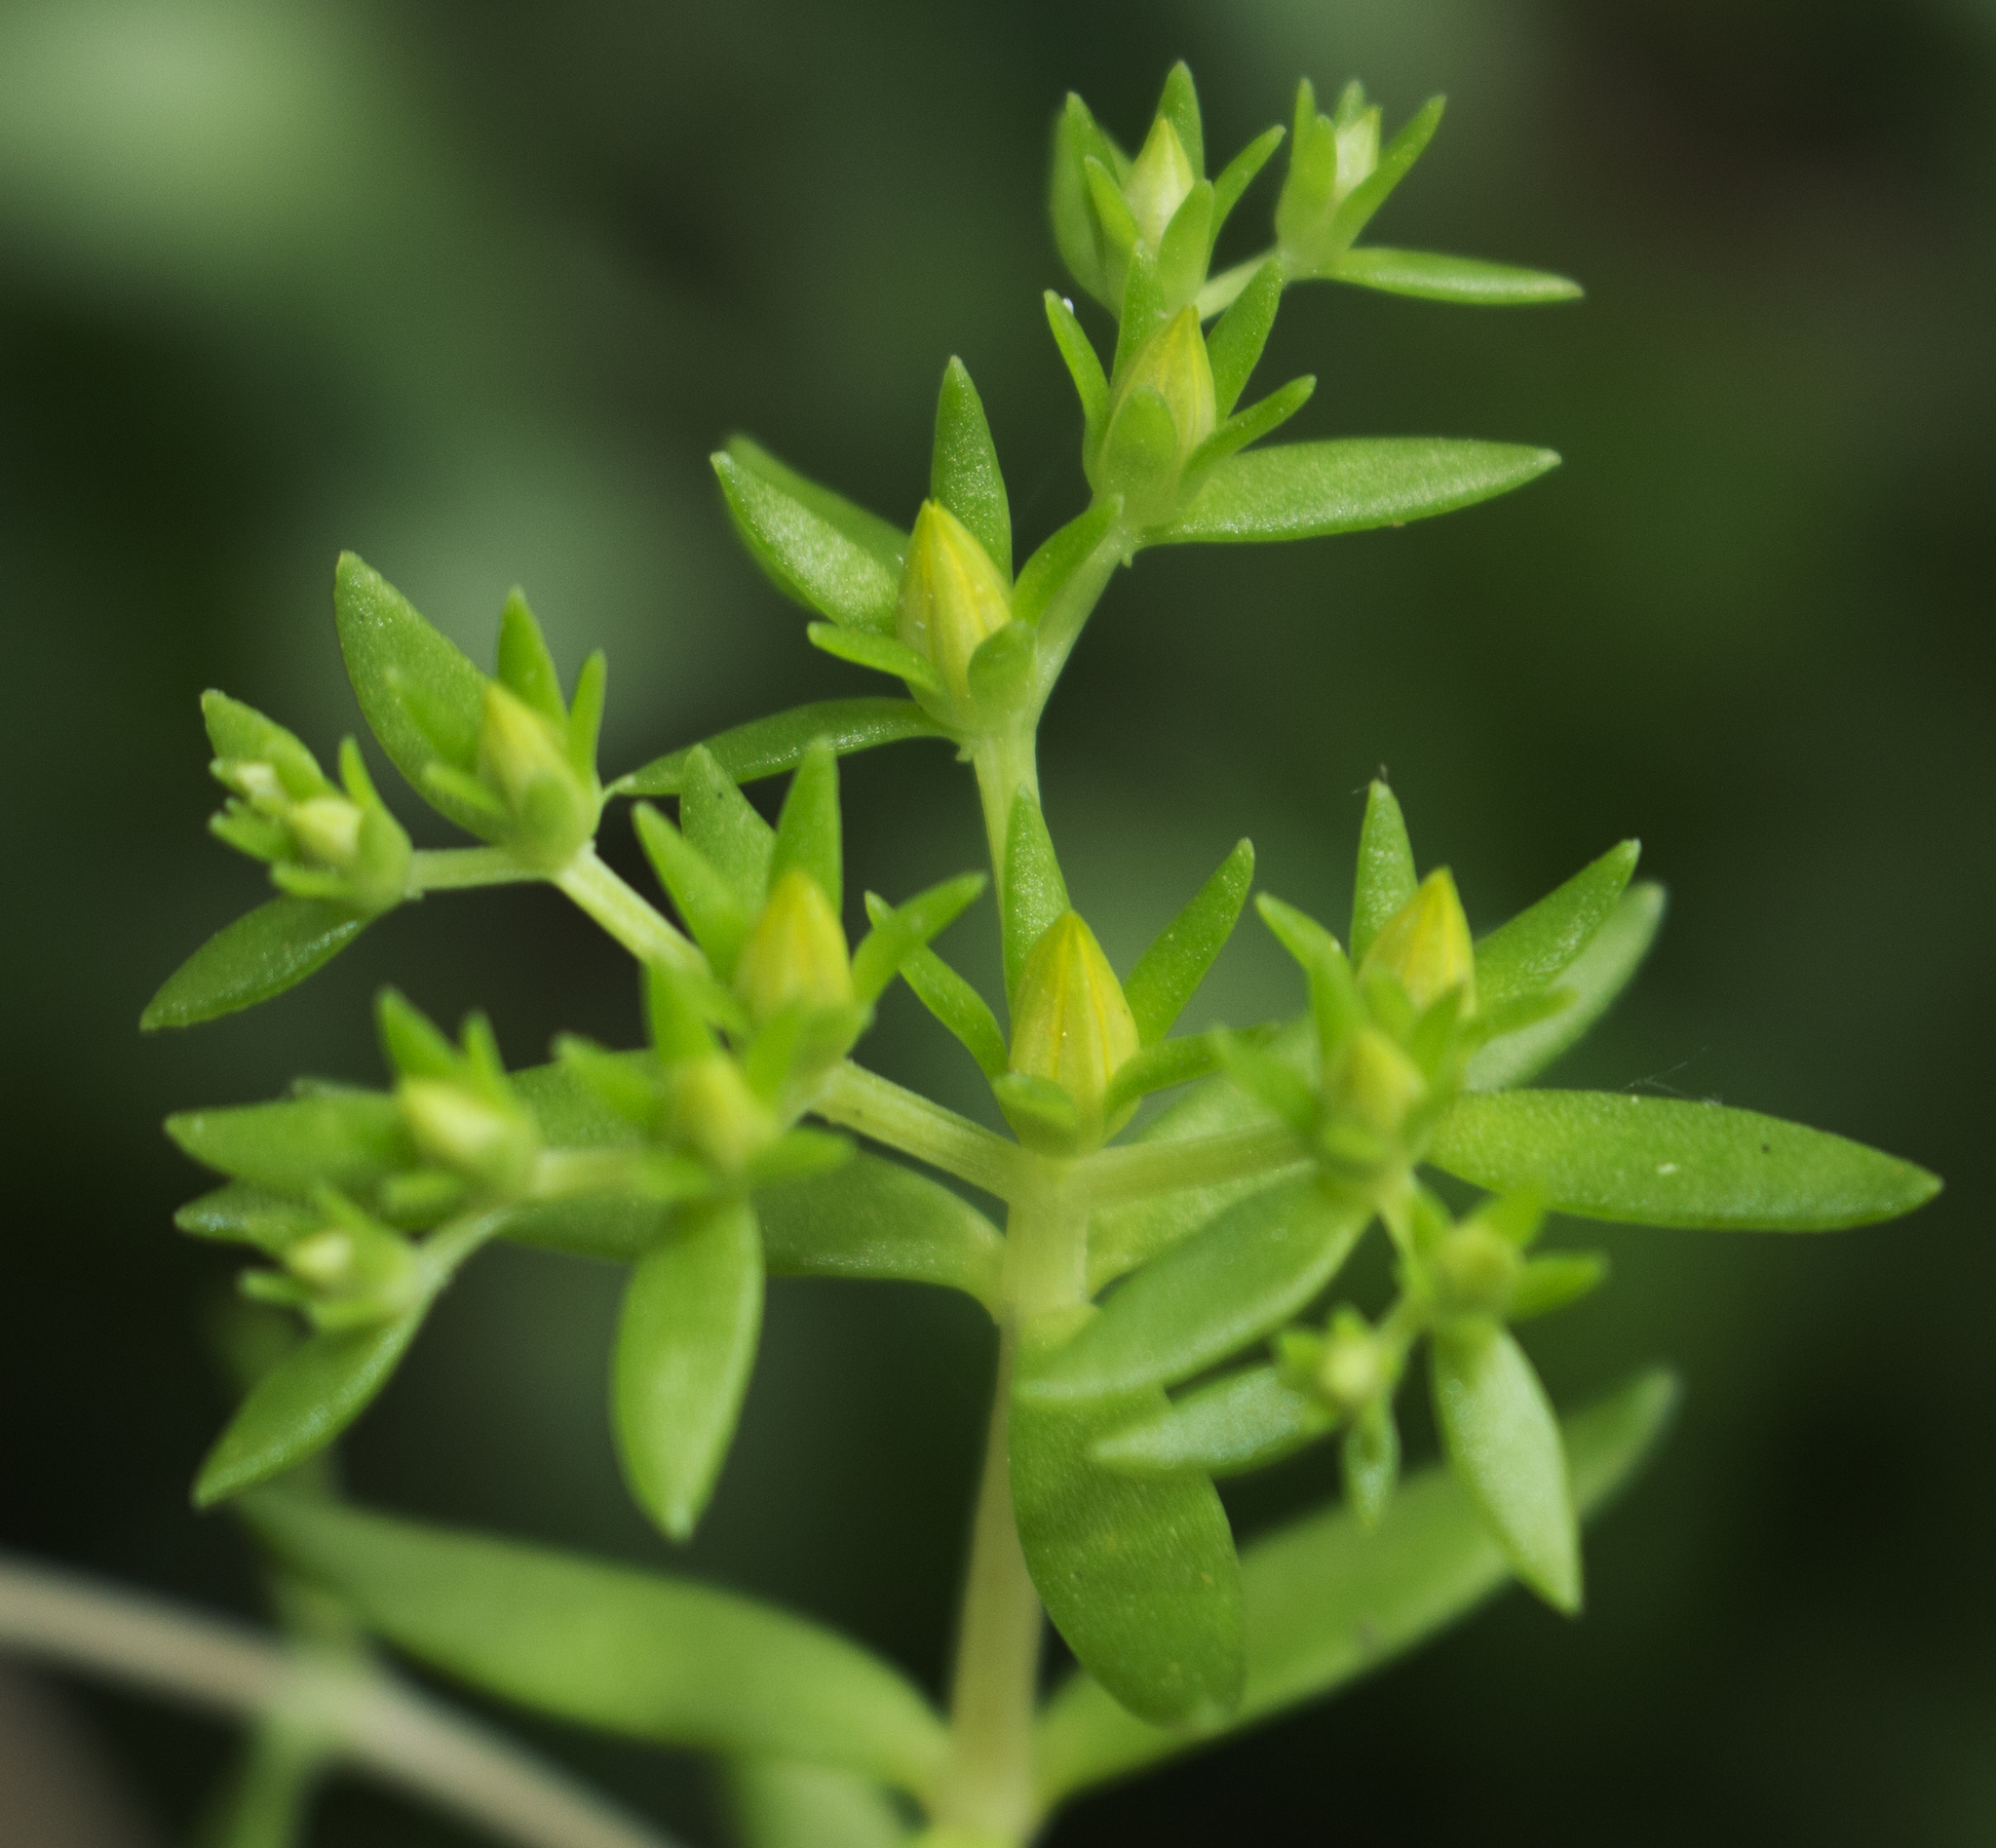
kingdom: Plantae
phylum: Tracheophyta
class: Magnoliopsida
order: Saxifragales
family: Crassulaceae
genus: Sedum
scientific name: Sedum sarmentosum
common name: Stringy stonecrop
